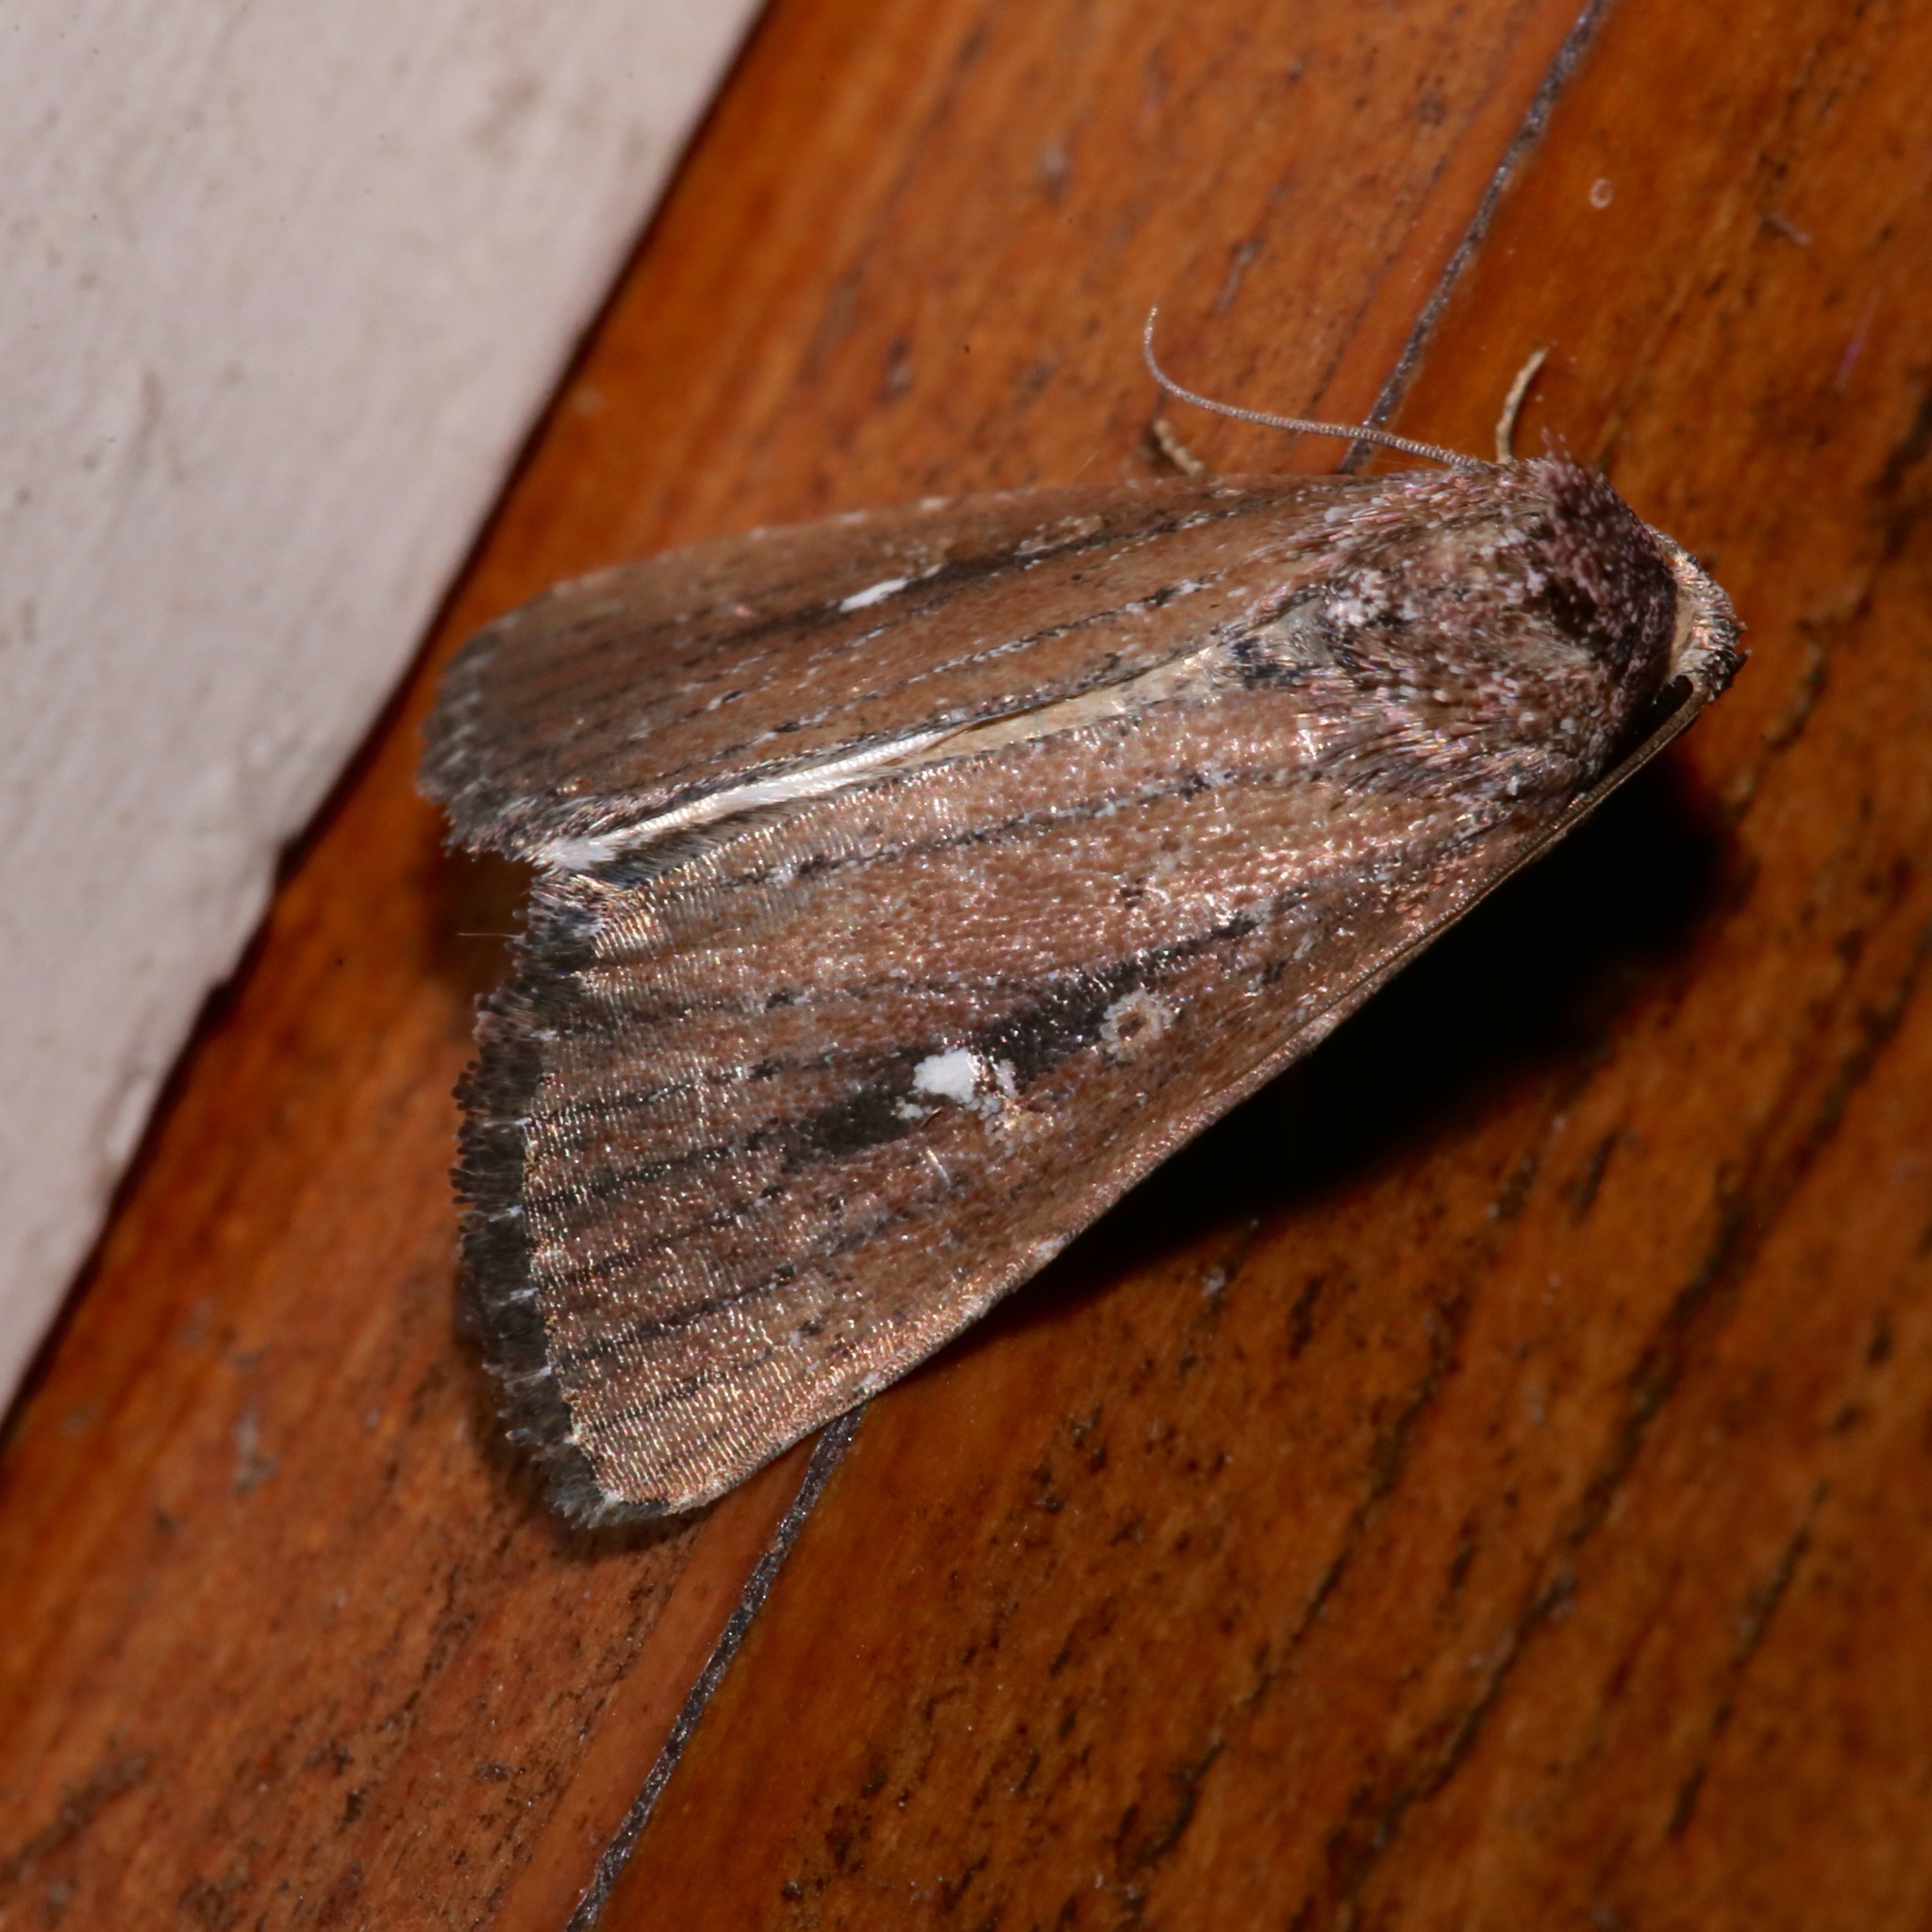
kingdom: Animalia
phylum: Arthropoda
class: Insecta
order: Lepidoptera
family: Noctuidae
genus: Condica
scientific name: Condica videns
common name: White-dotted groundling
